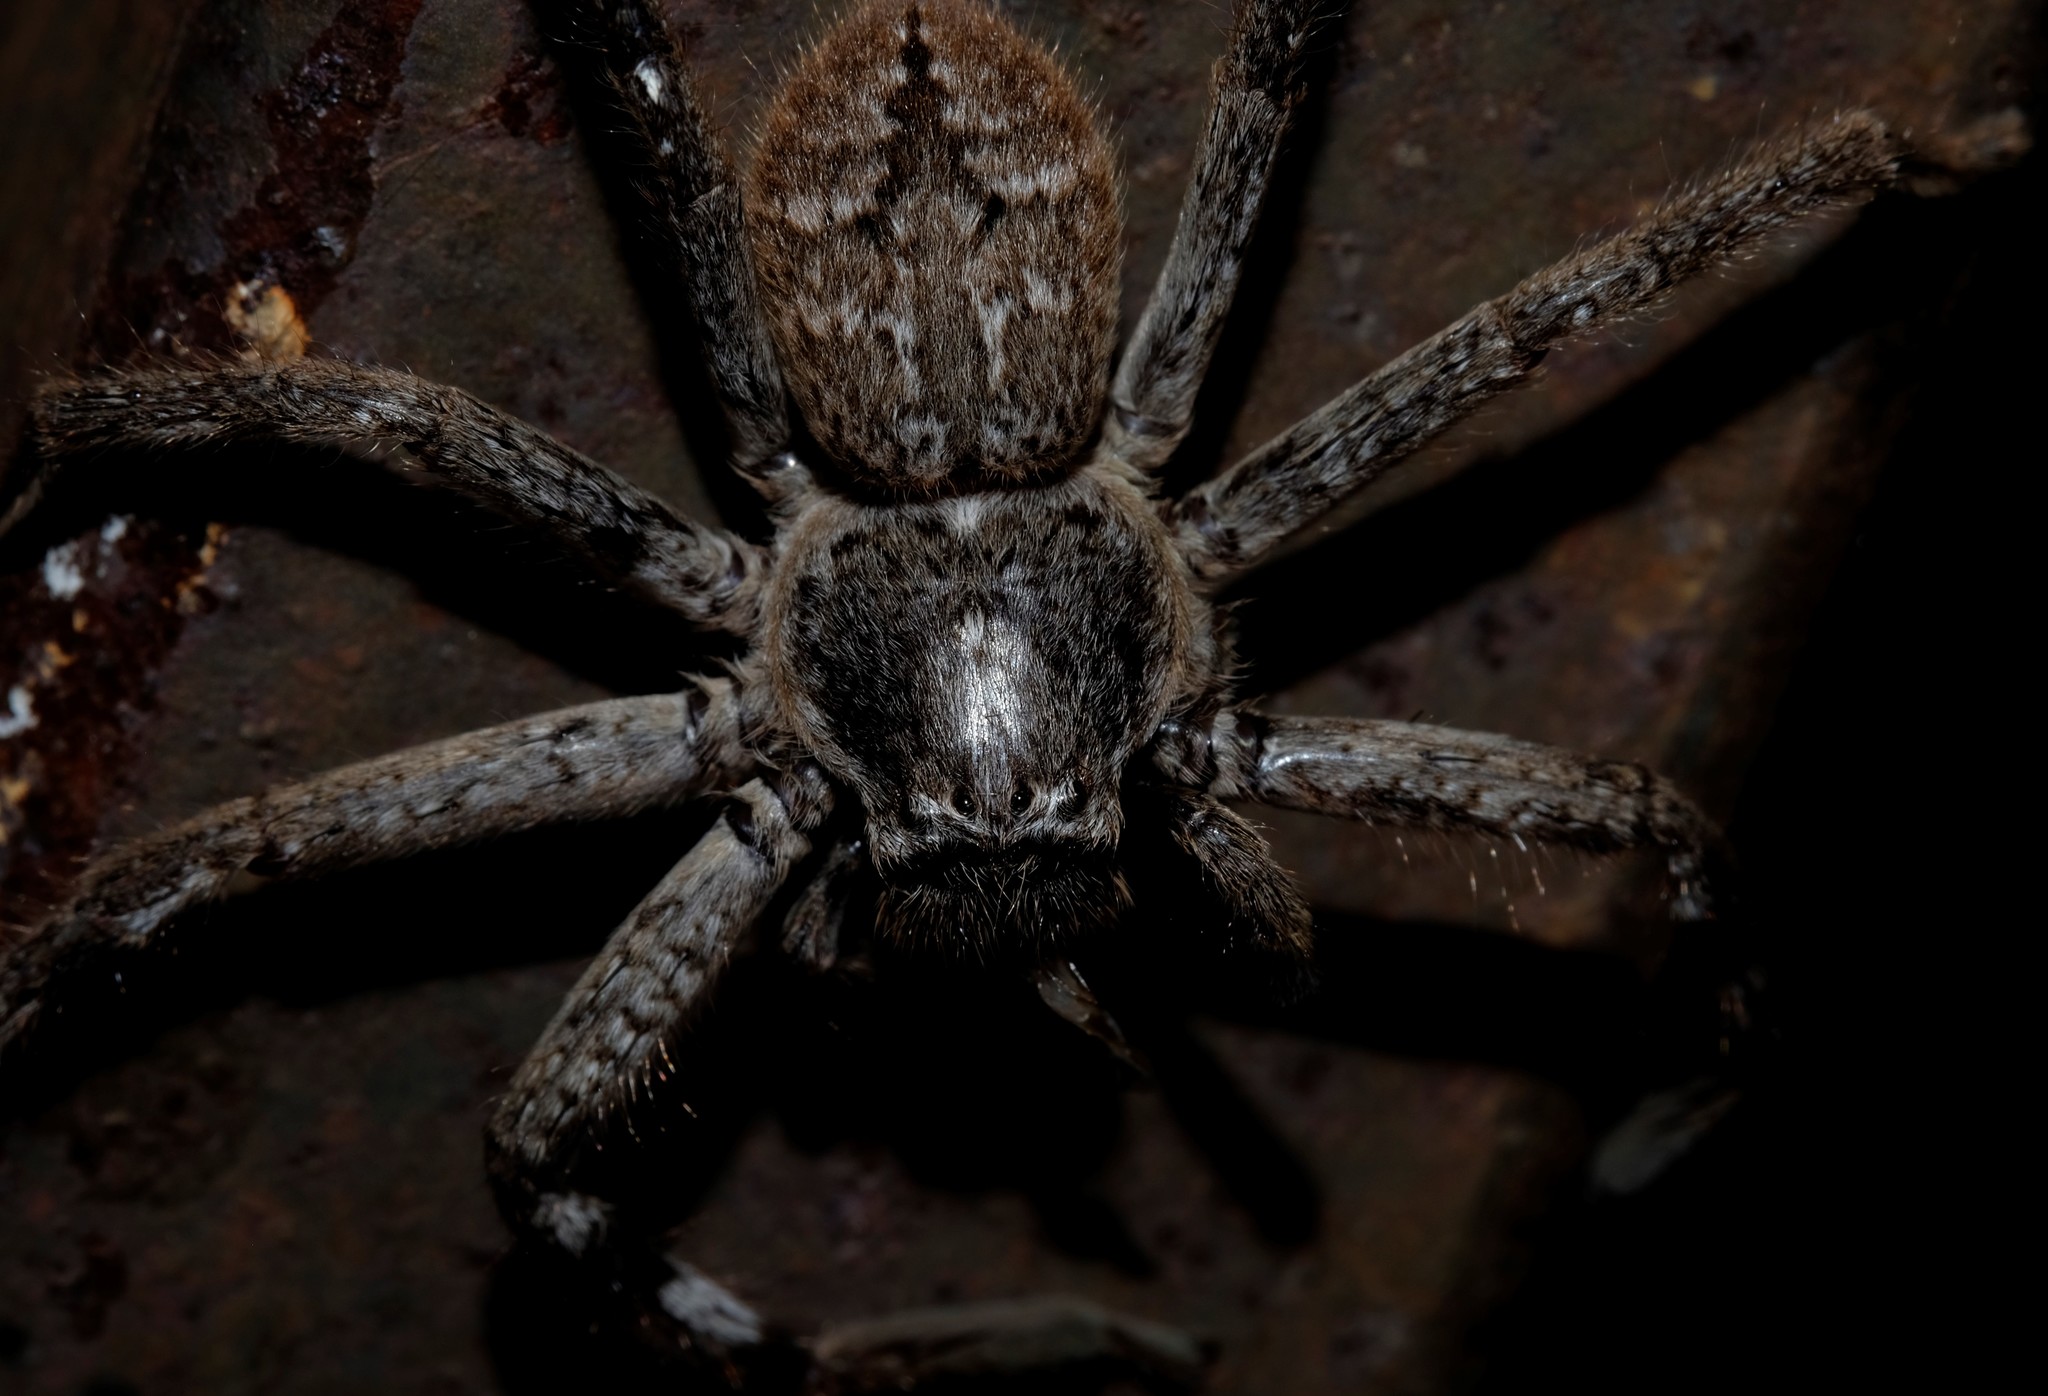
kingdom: Animalia
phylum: Arthropoda
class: Arachnida
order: Araneae
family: Sparassidae
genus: Isopedella
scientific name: Isopedella victorialis
